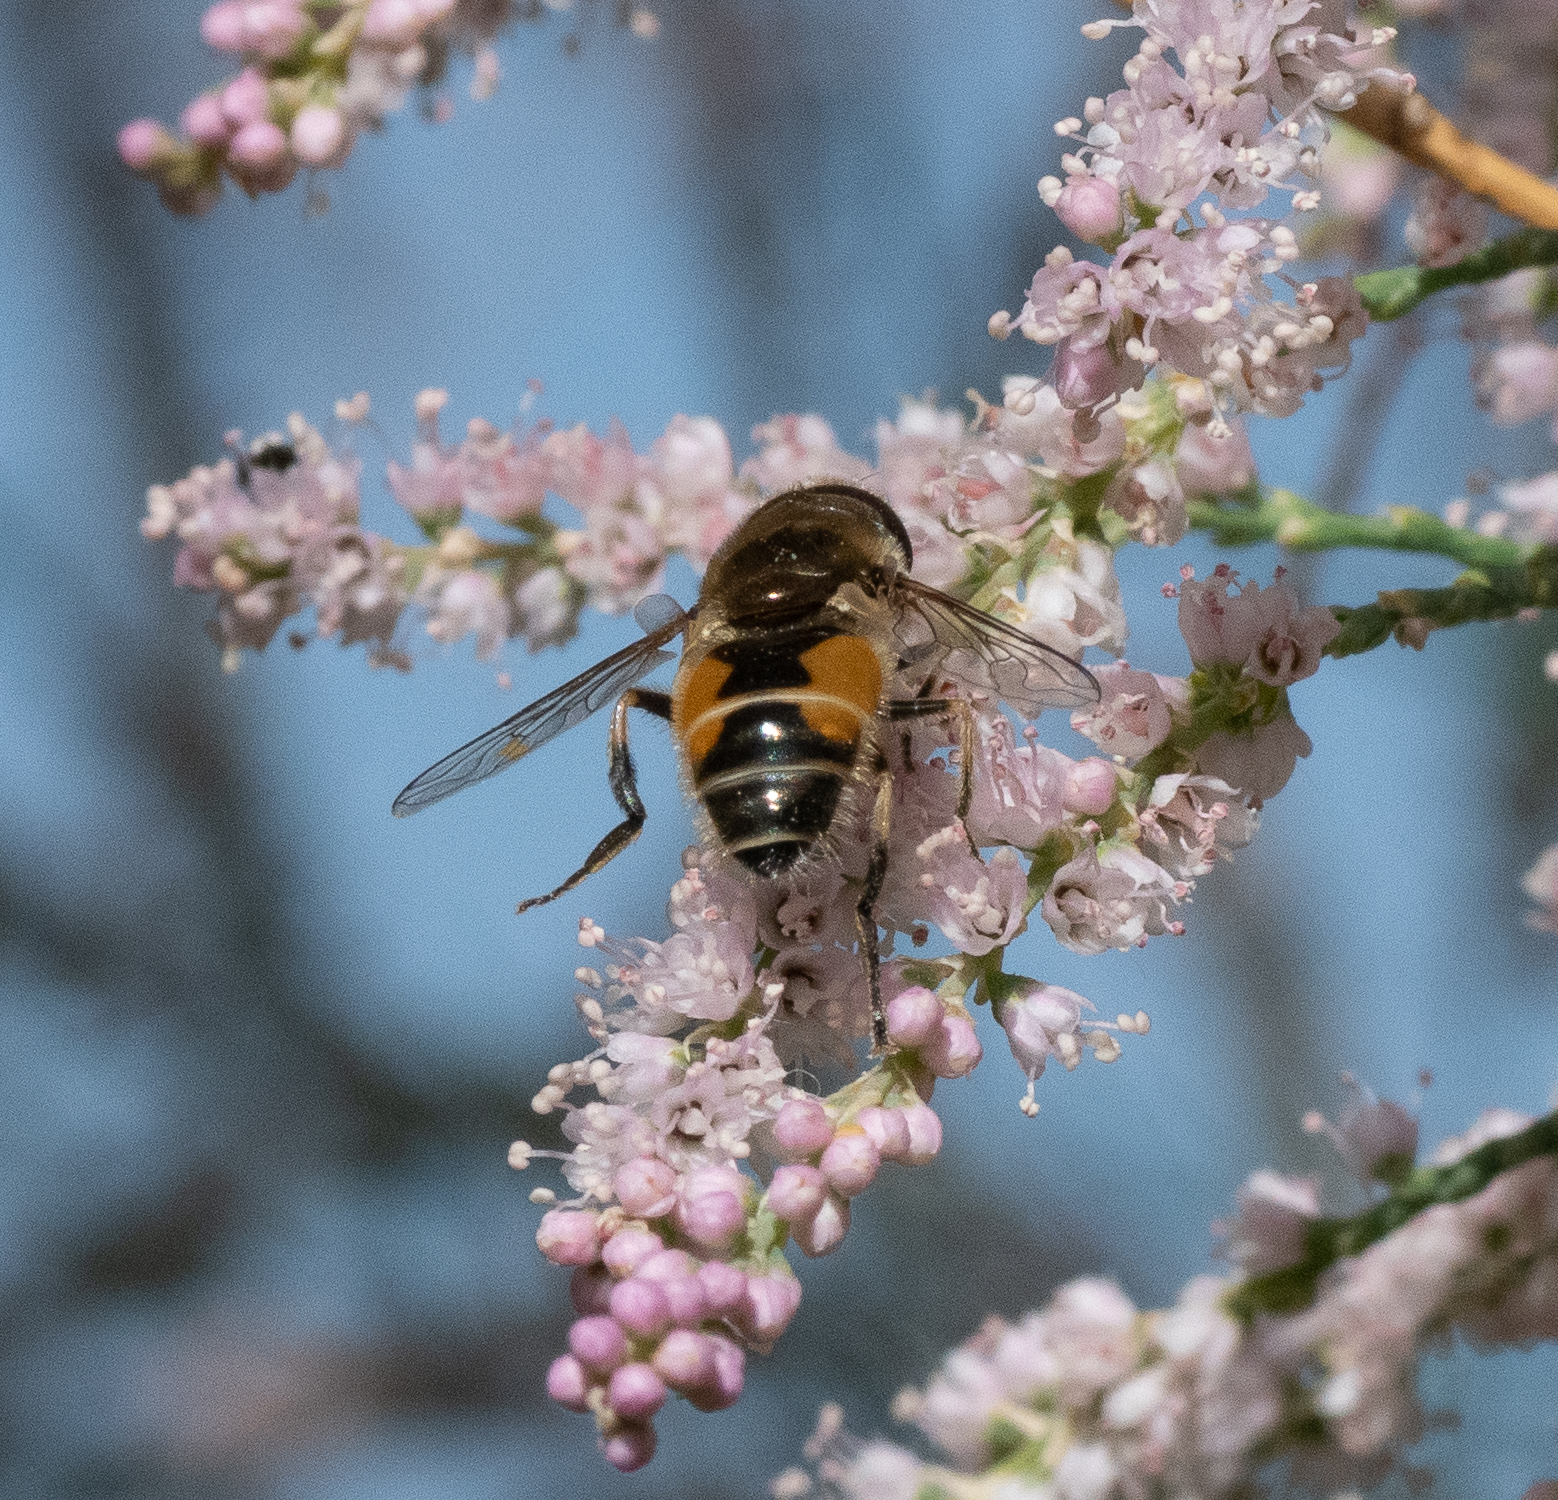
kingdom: Animalia
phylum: Arthropoda
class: Insecta
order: Diptera
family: Syrphidae
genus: Eristalis
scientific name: Eristalis arbustorum
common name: Hover fly
